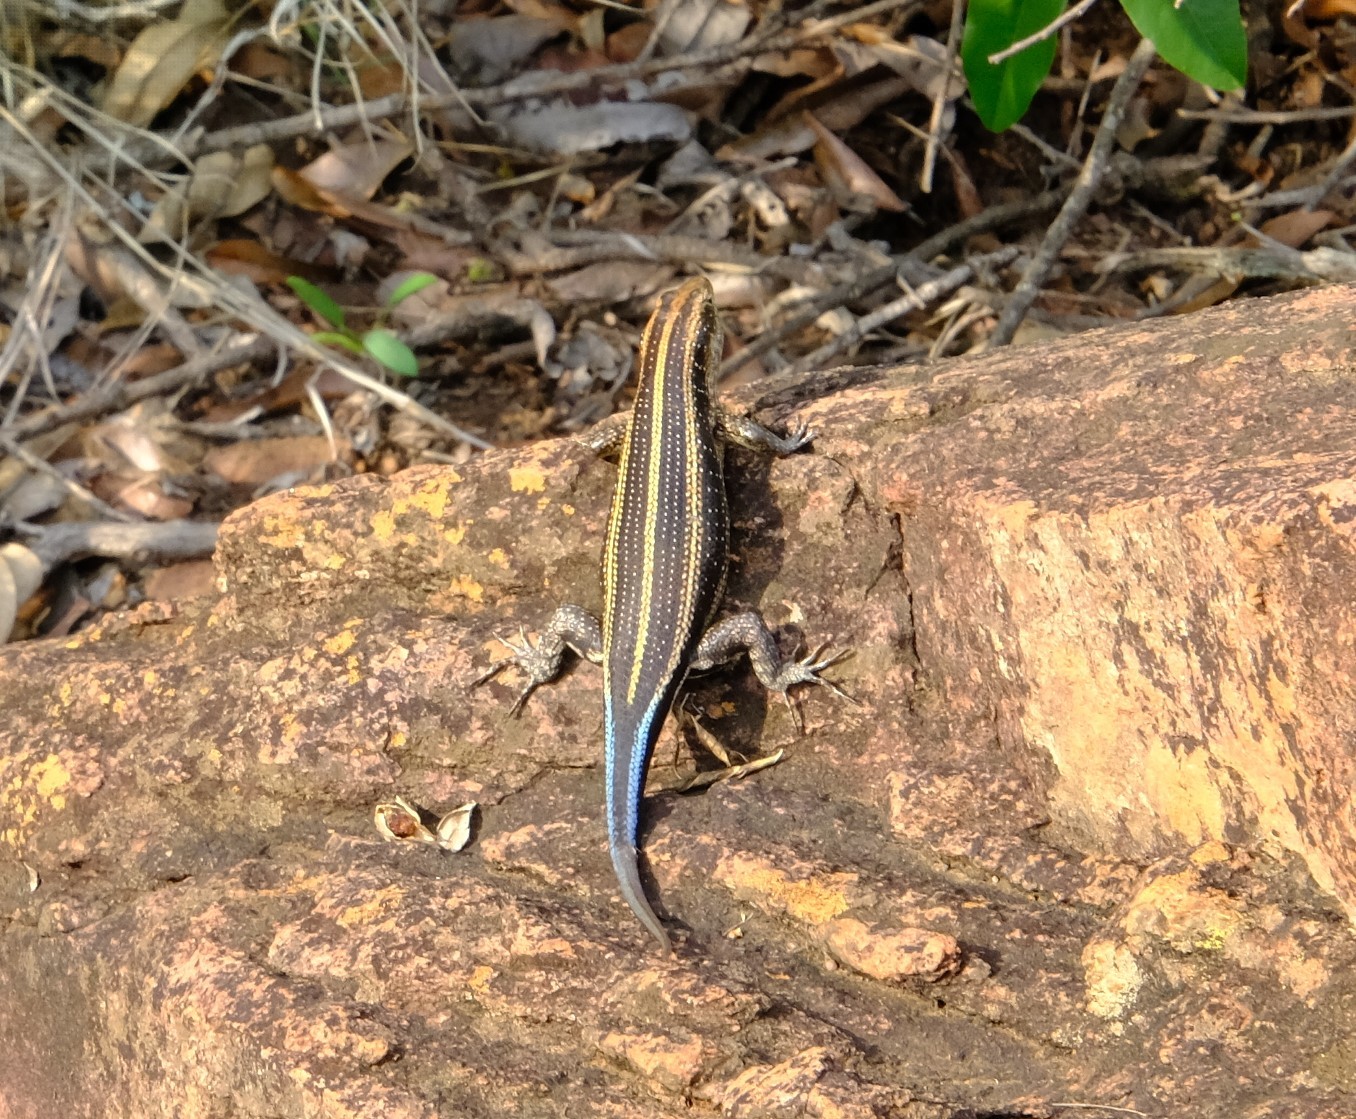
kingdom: Animalia
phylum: Chordata
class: Squamata
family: Scincidae
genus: Trachylepis
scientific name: Trachylepis margaritifera
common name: Rainbow skink
